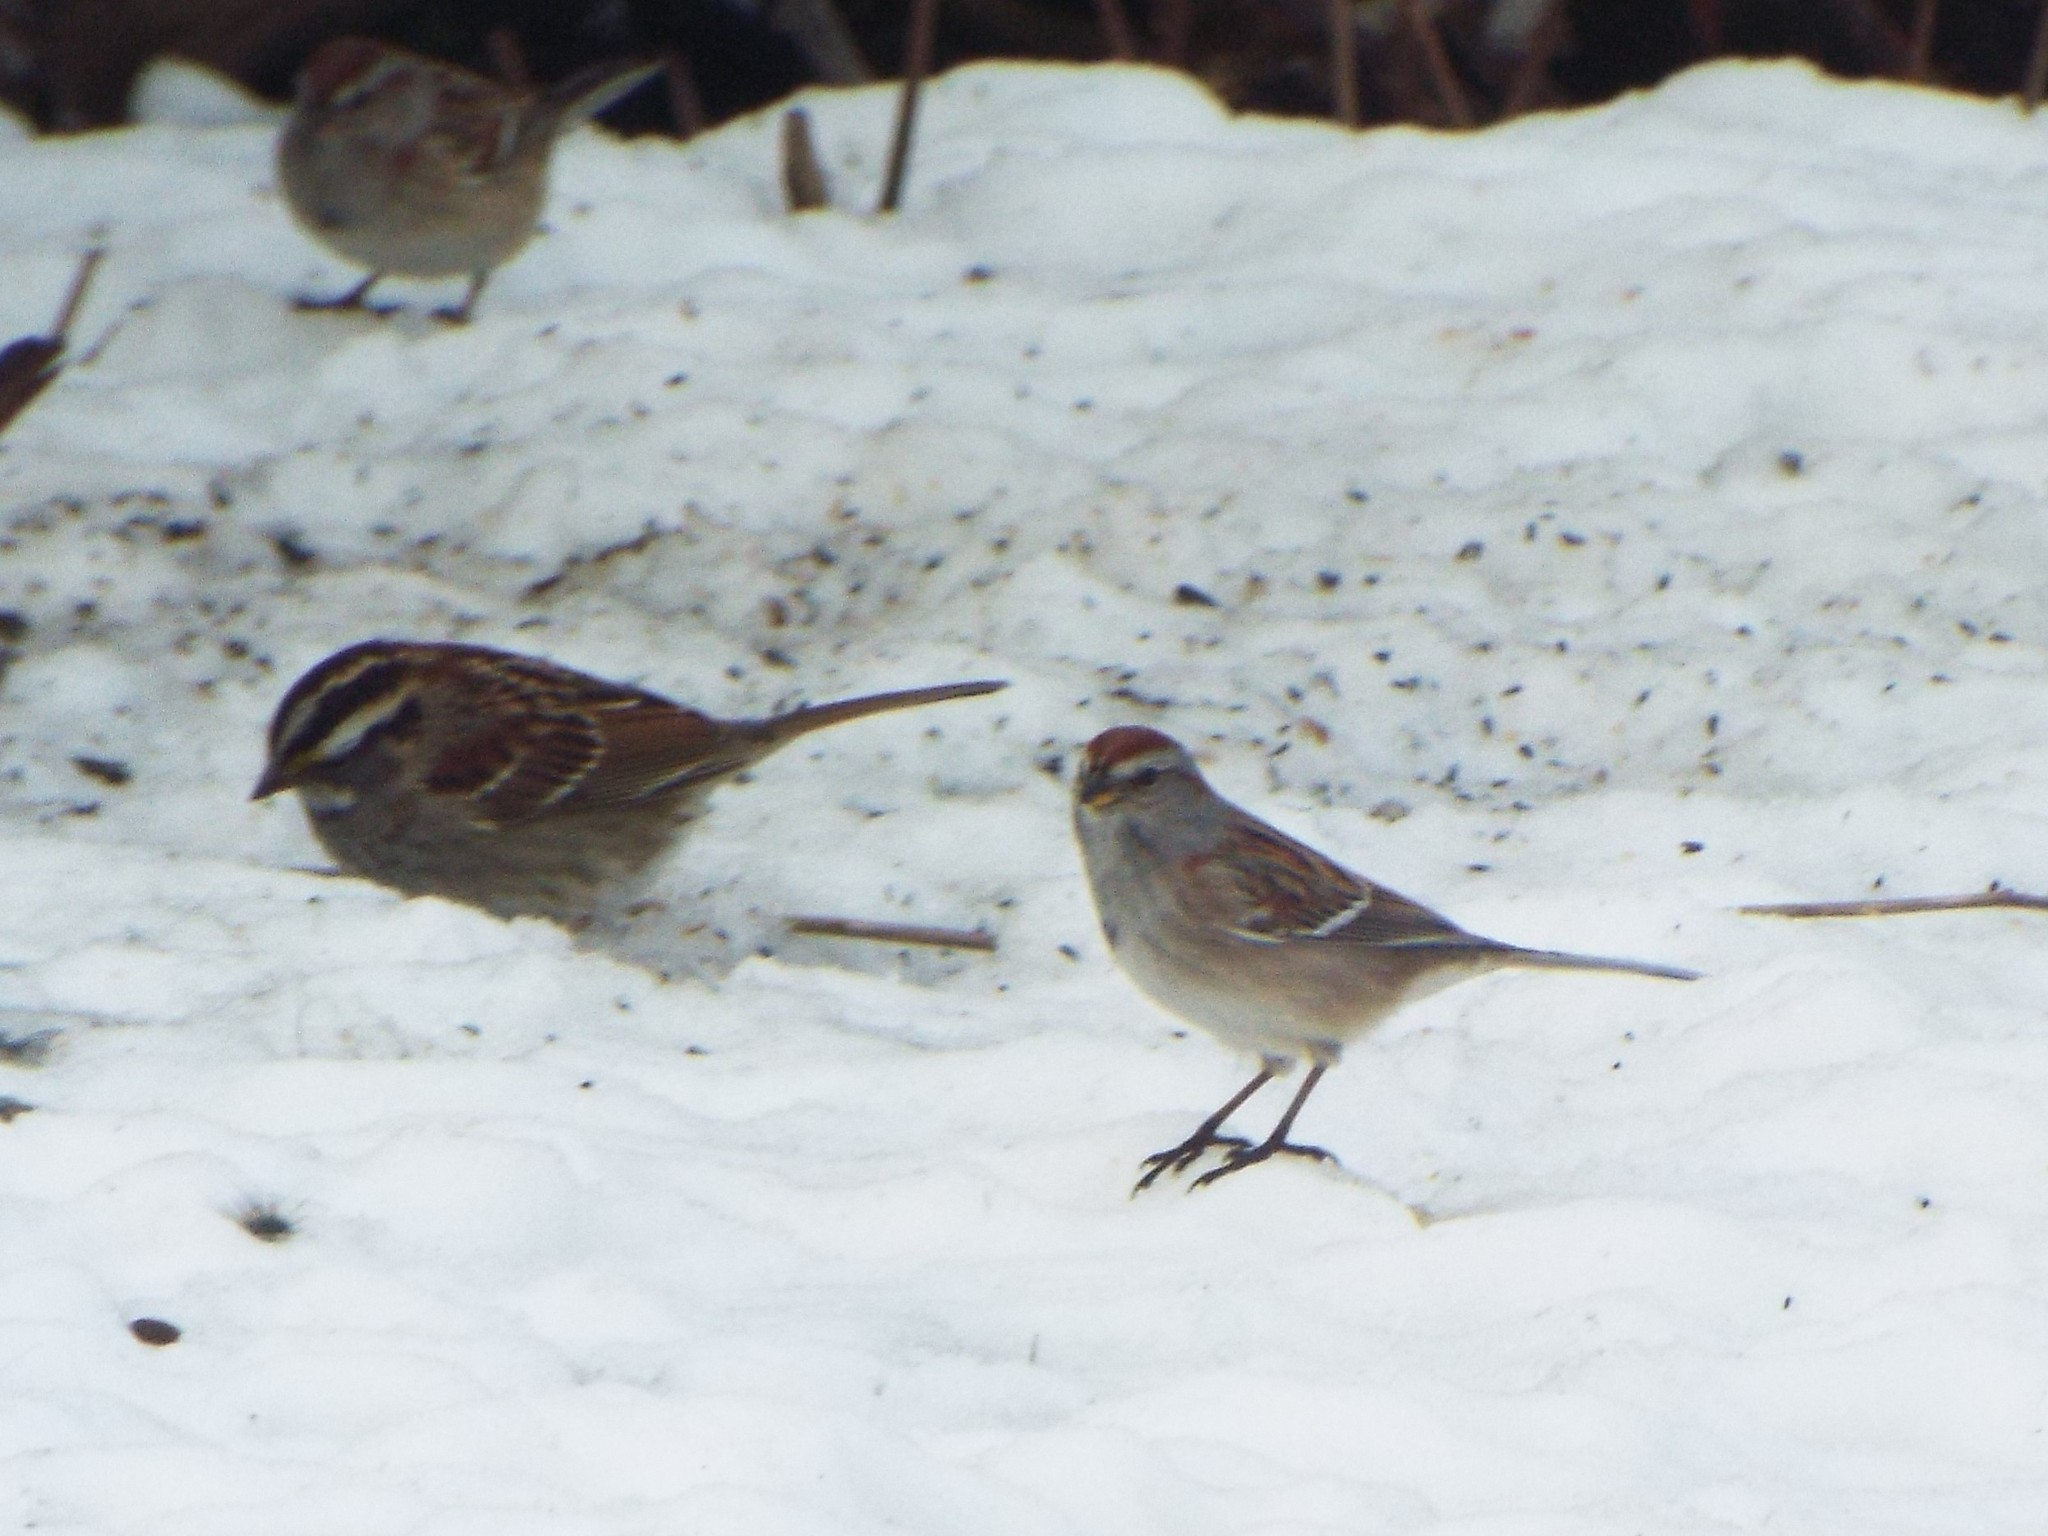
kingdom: Animalia
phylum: Chordata
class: Aves
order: Passeriformes
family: Passerellidae
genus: Spizelloides
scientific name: Spizelloides arborea
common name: American tree sparrow
